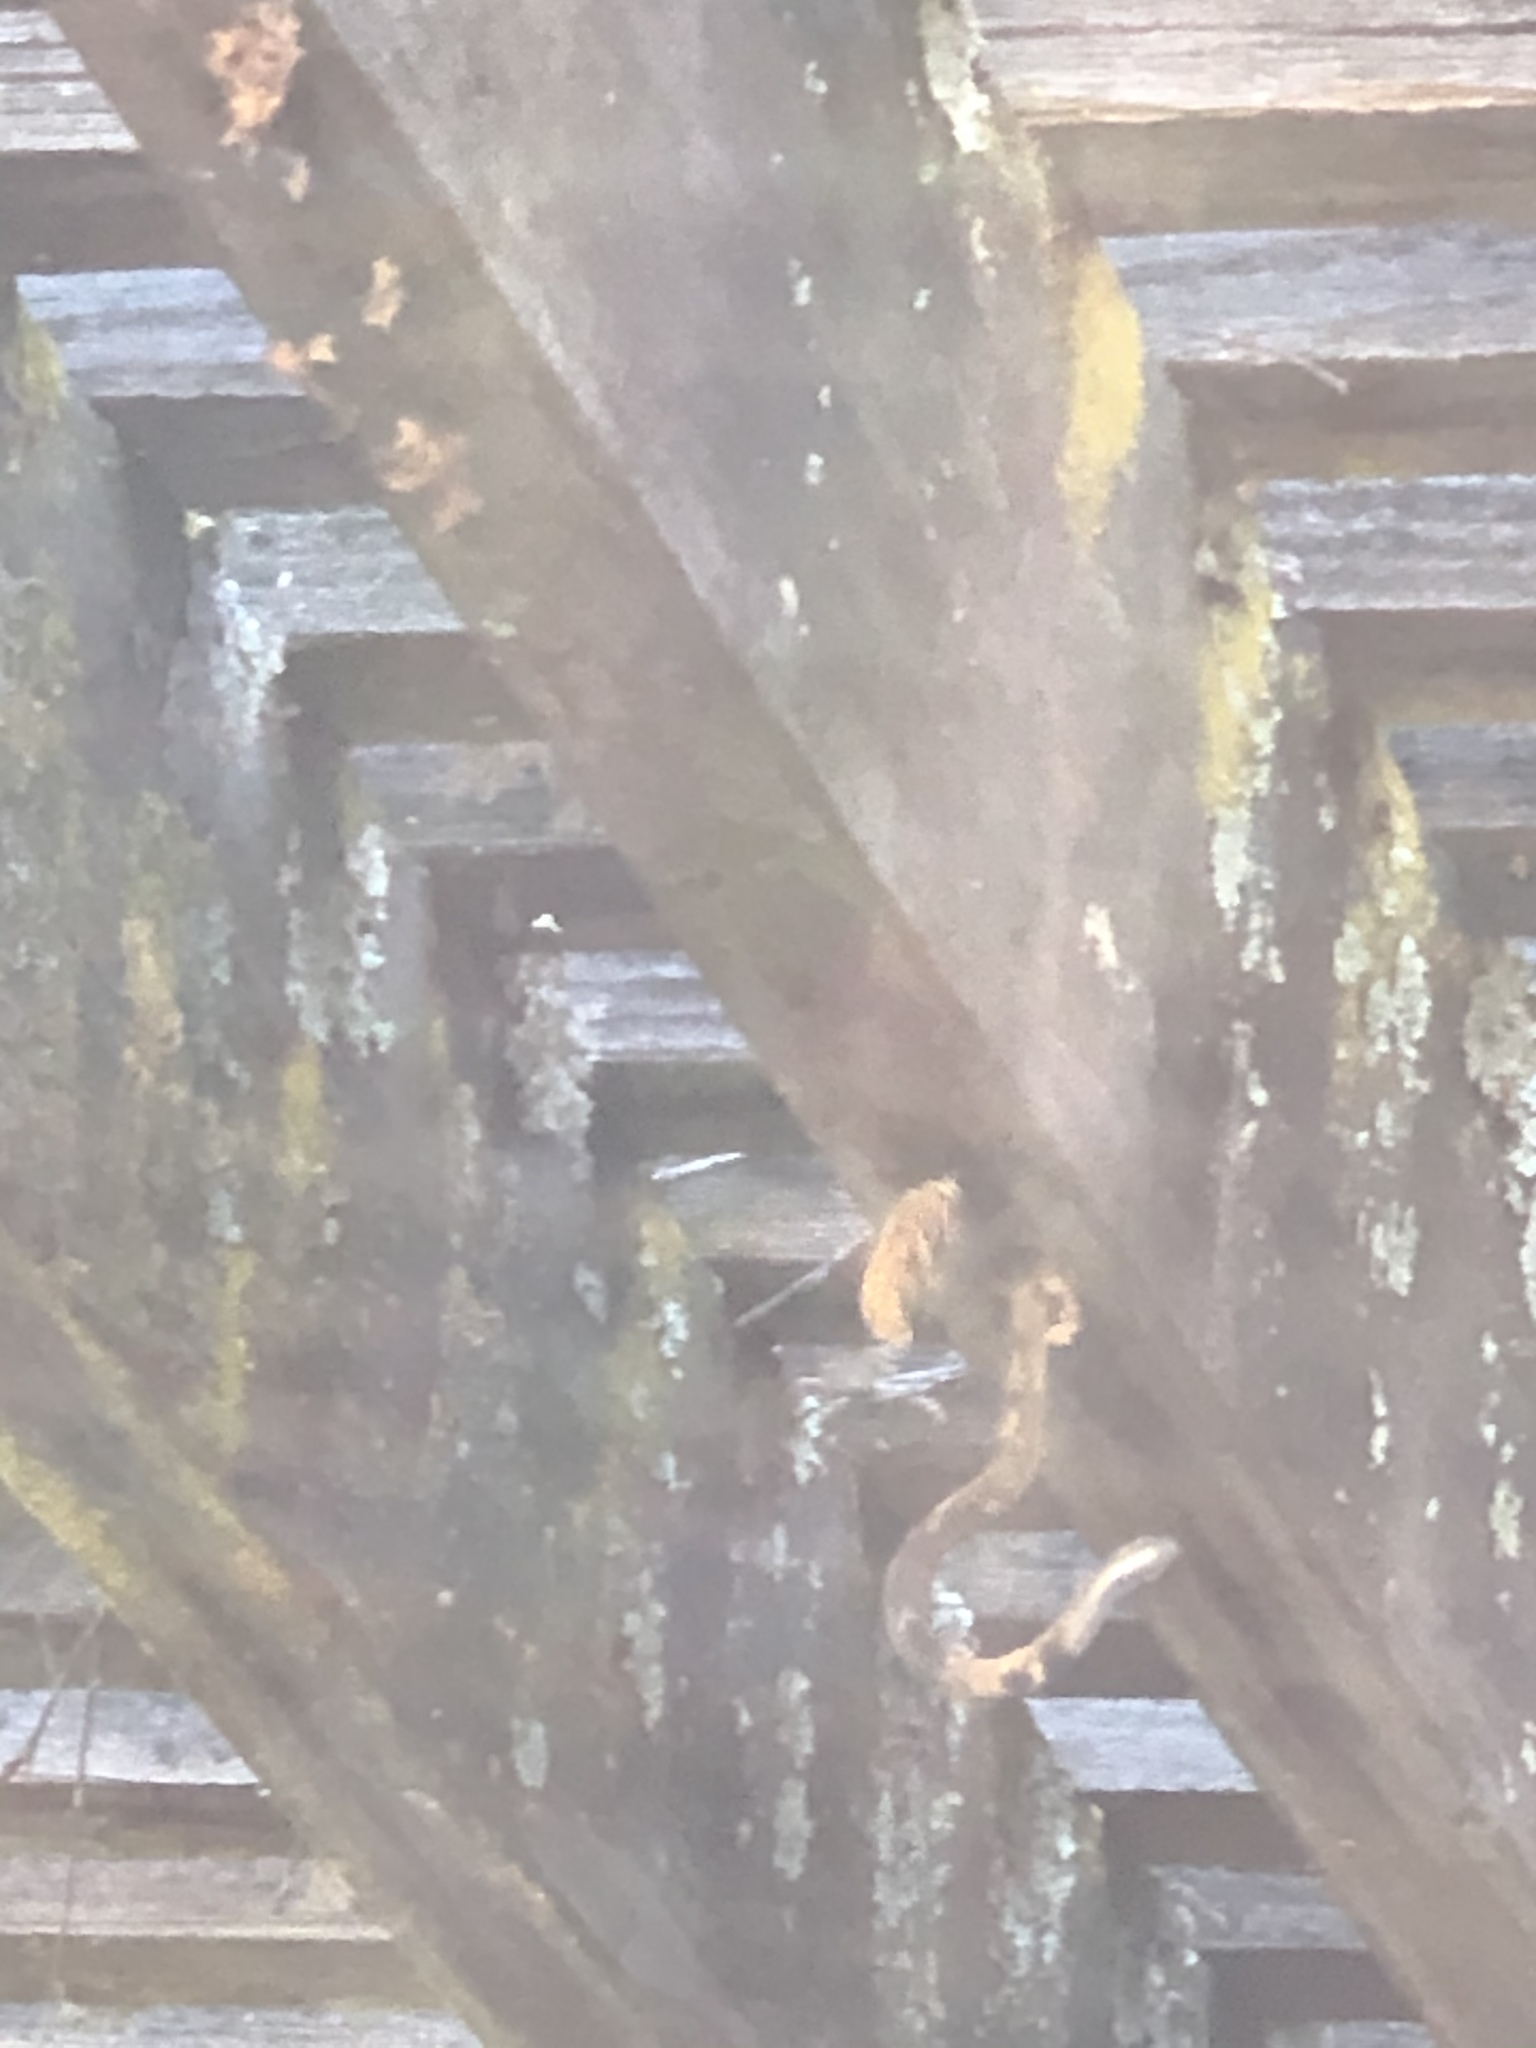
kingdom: Animalia
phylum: Arthropoda
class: Insecta
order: Hymenoptera
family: Apidae
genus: Xylocopa
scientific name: Xylocopa sonorina
